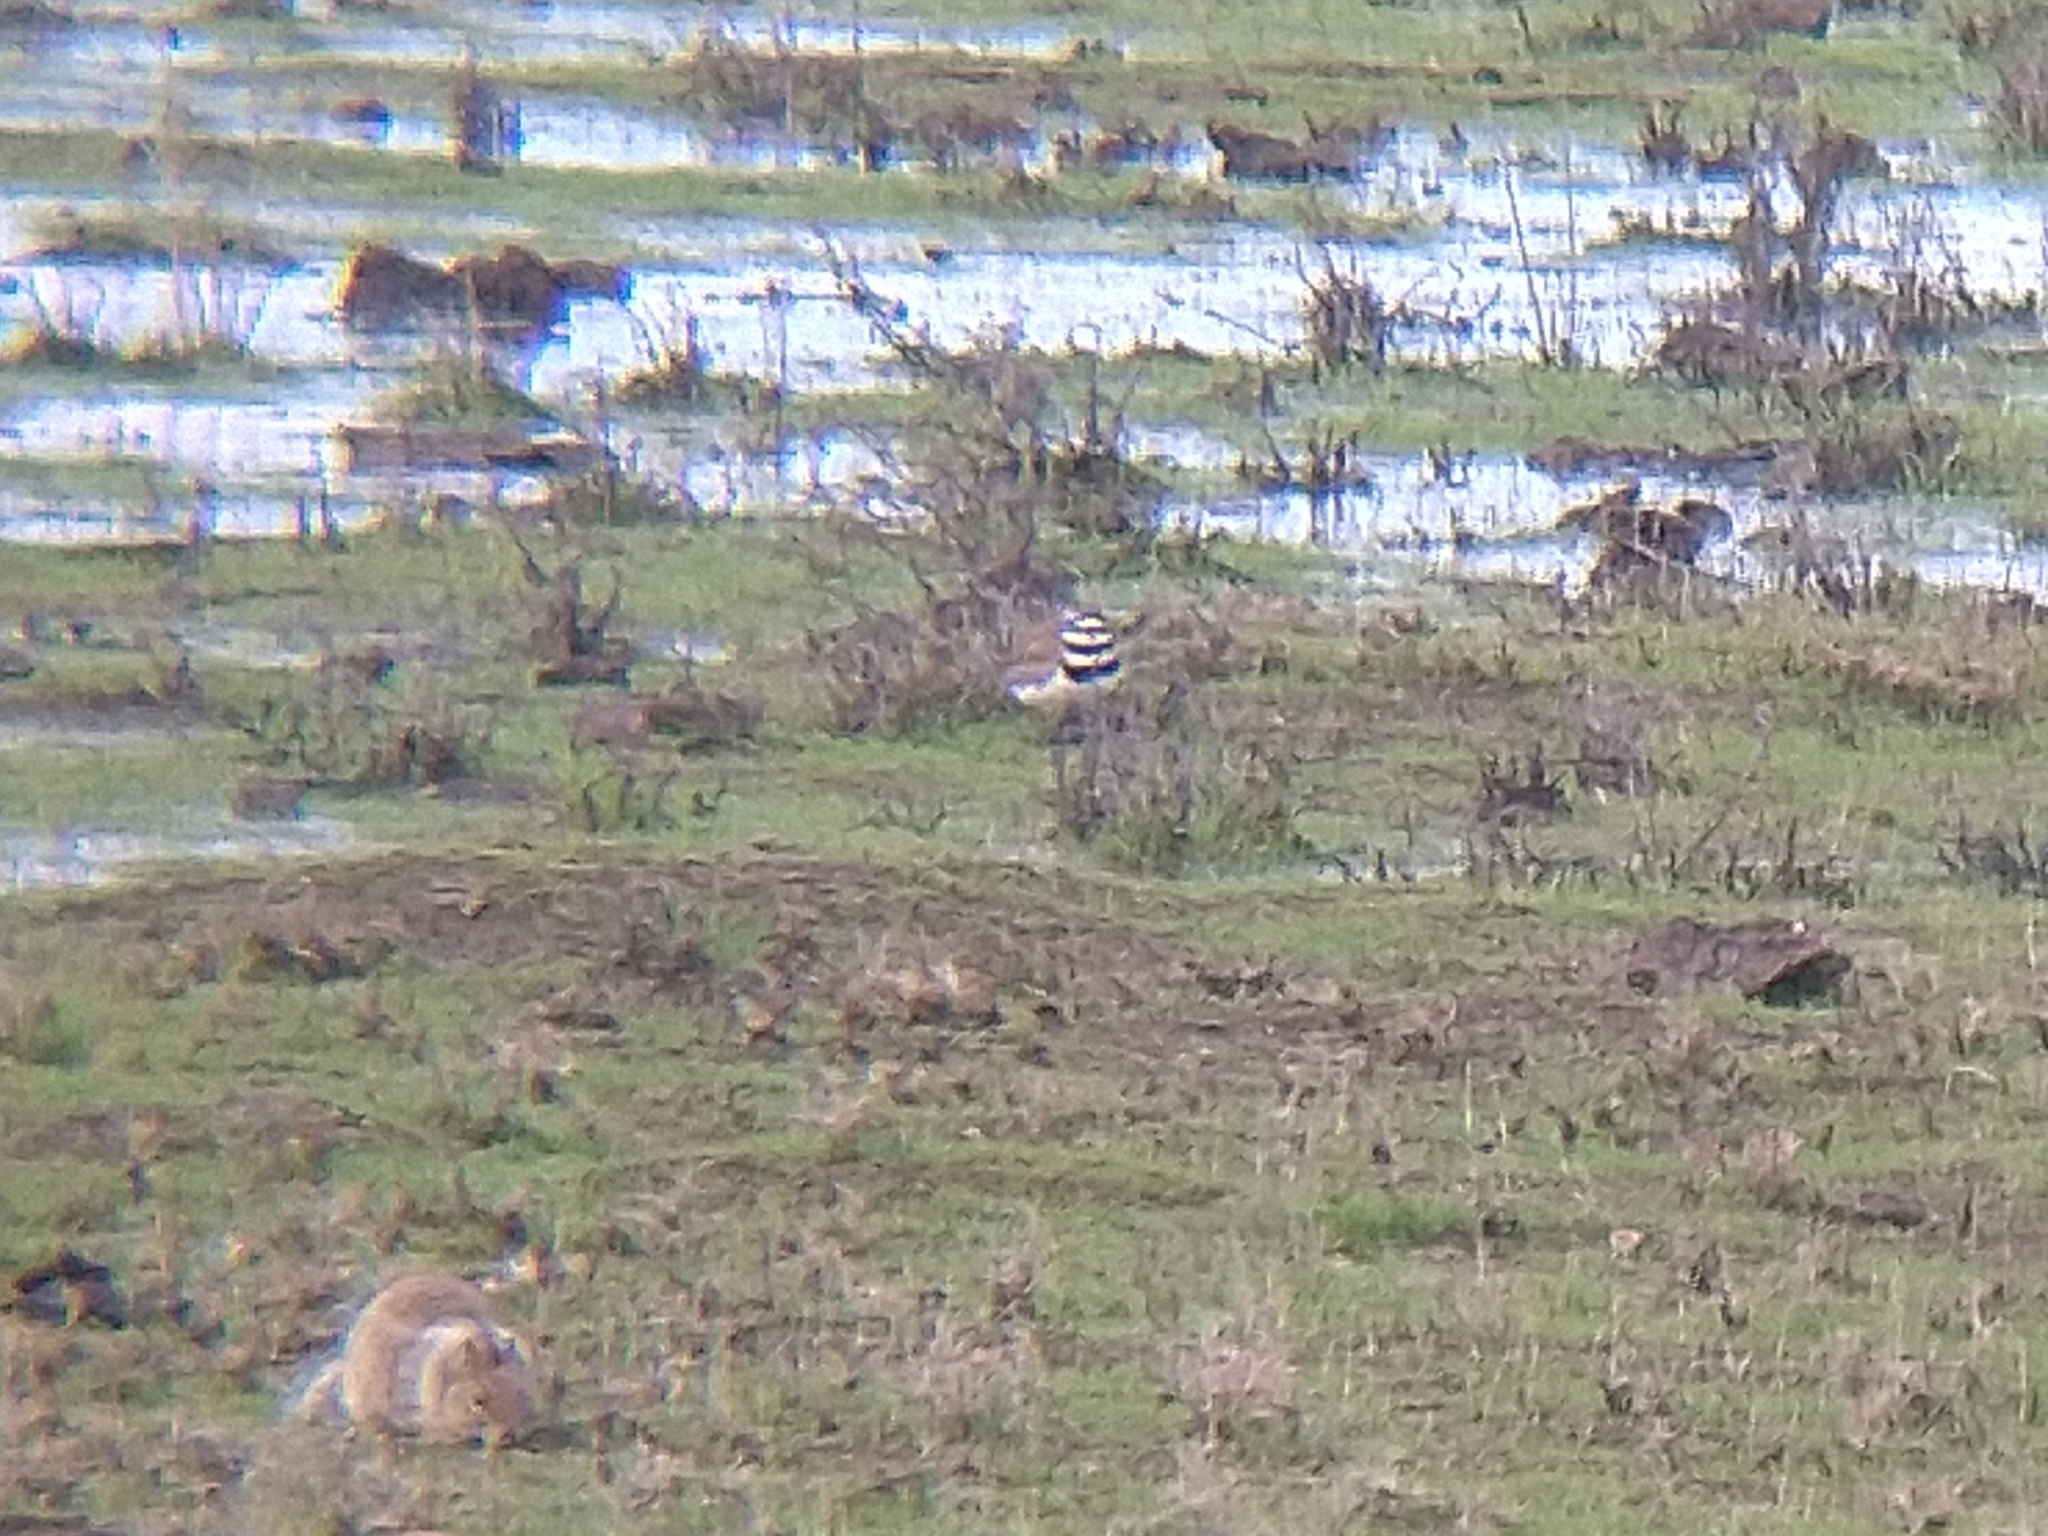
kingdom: Animalia
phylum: Chordata
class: Aves
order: Charadriiformes
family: Charadriidae
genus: Charadrius
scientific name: Charadrius vociferus
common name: Killdeer
